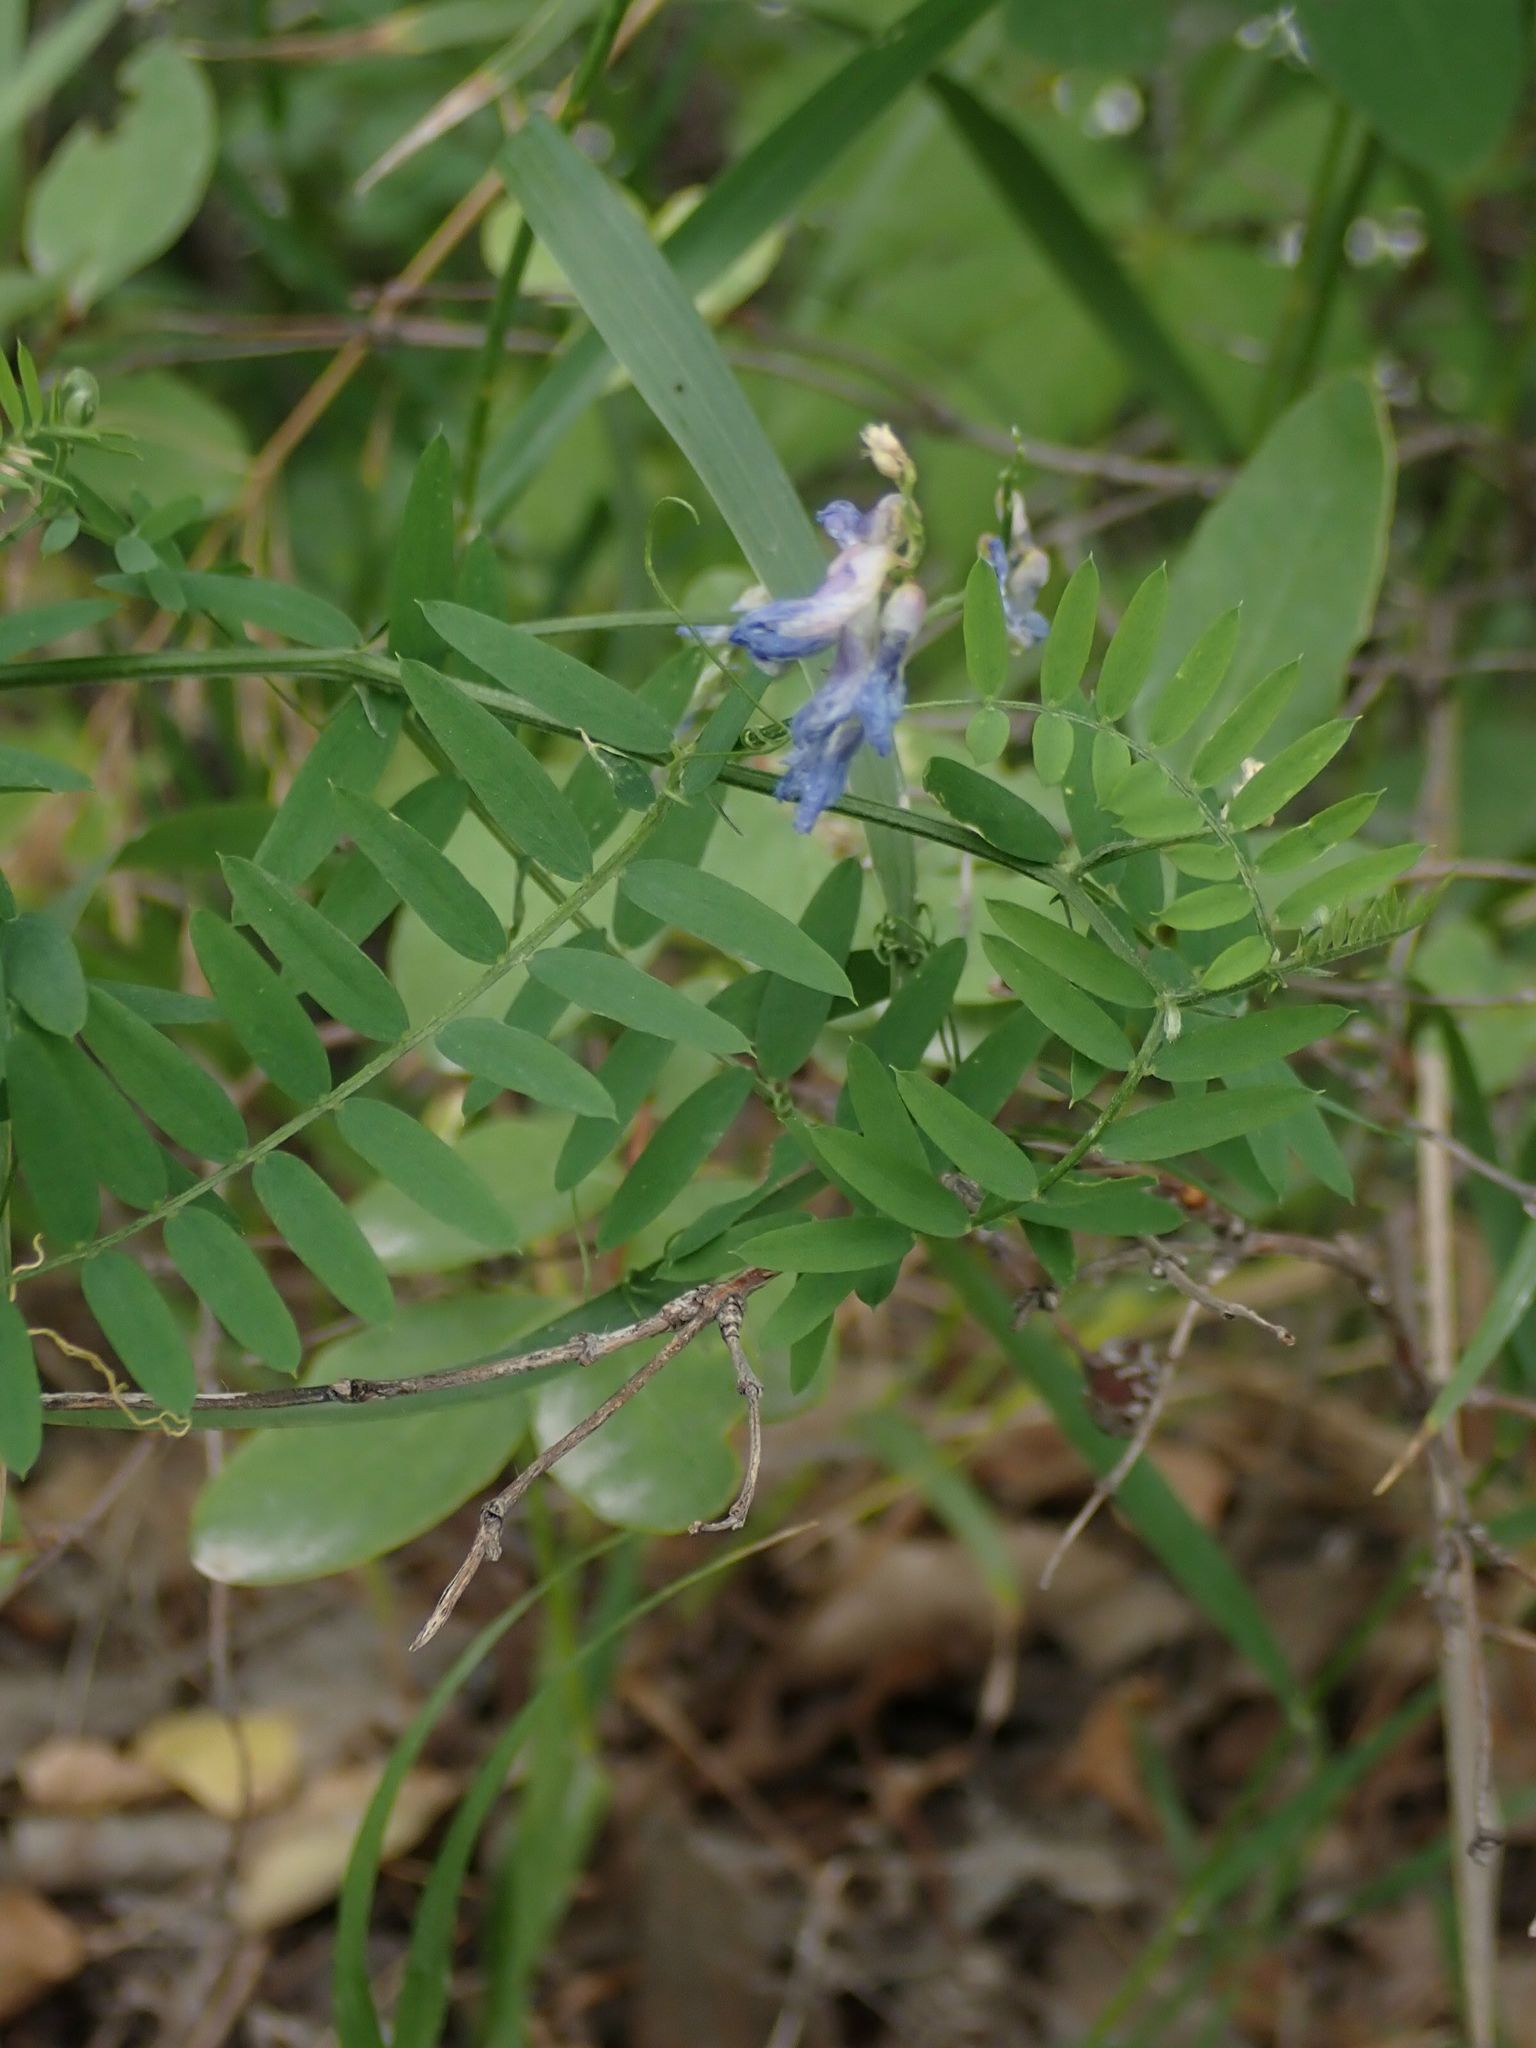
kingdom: Plantae
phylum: Tracheophyta
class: Magnoliopsida
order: Fabales
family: Fabaceae
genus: Vicia
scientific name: Vicia cracca
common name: Bird vetch
